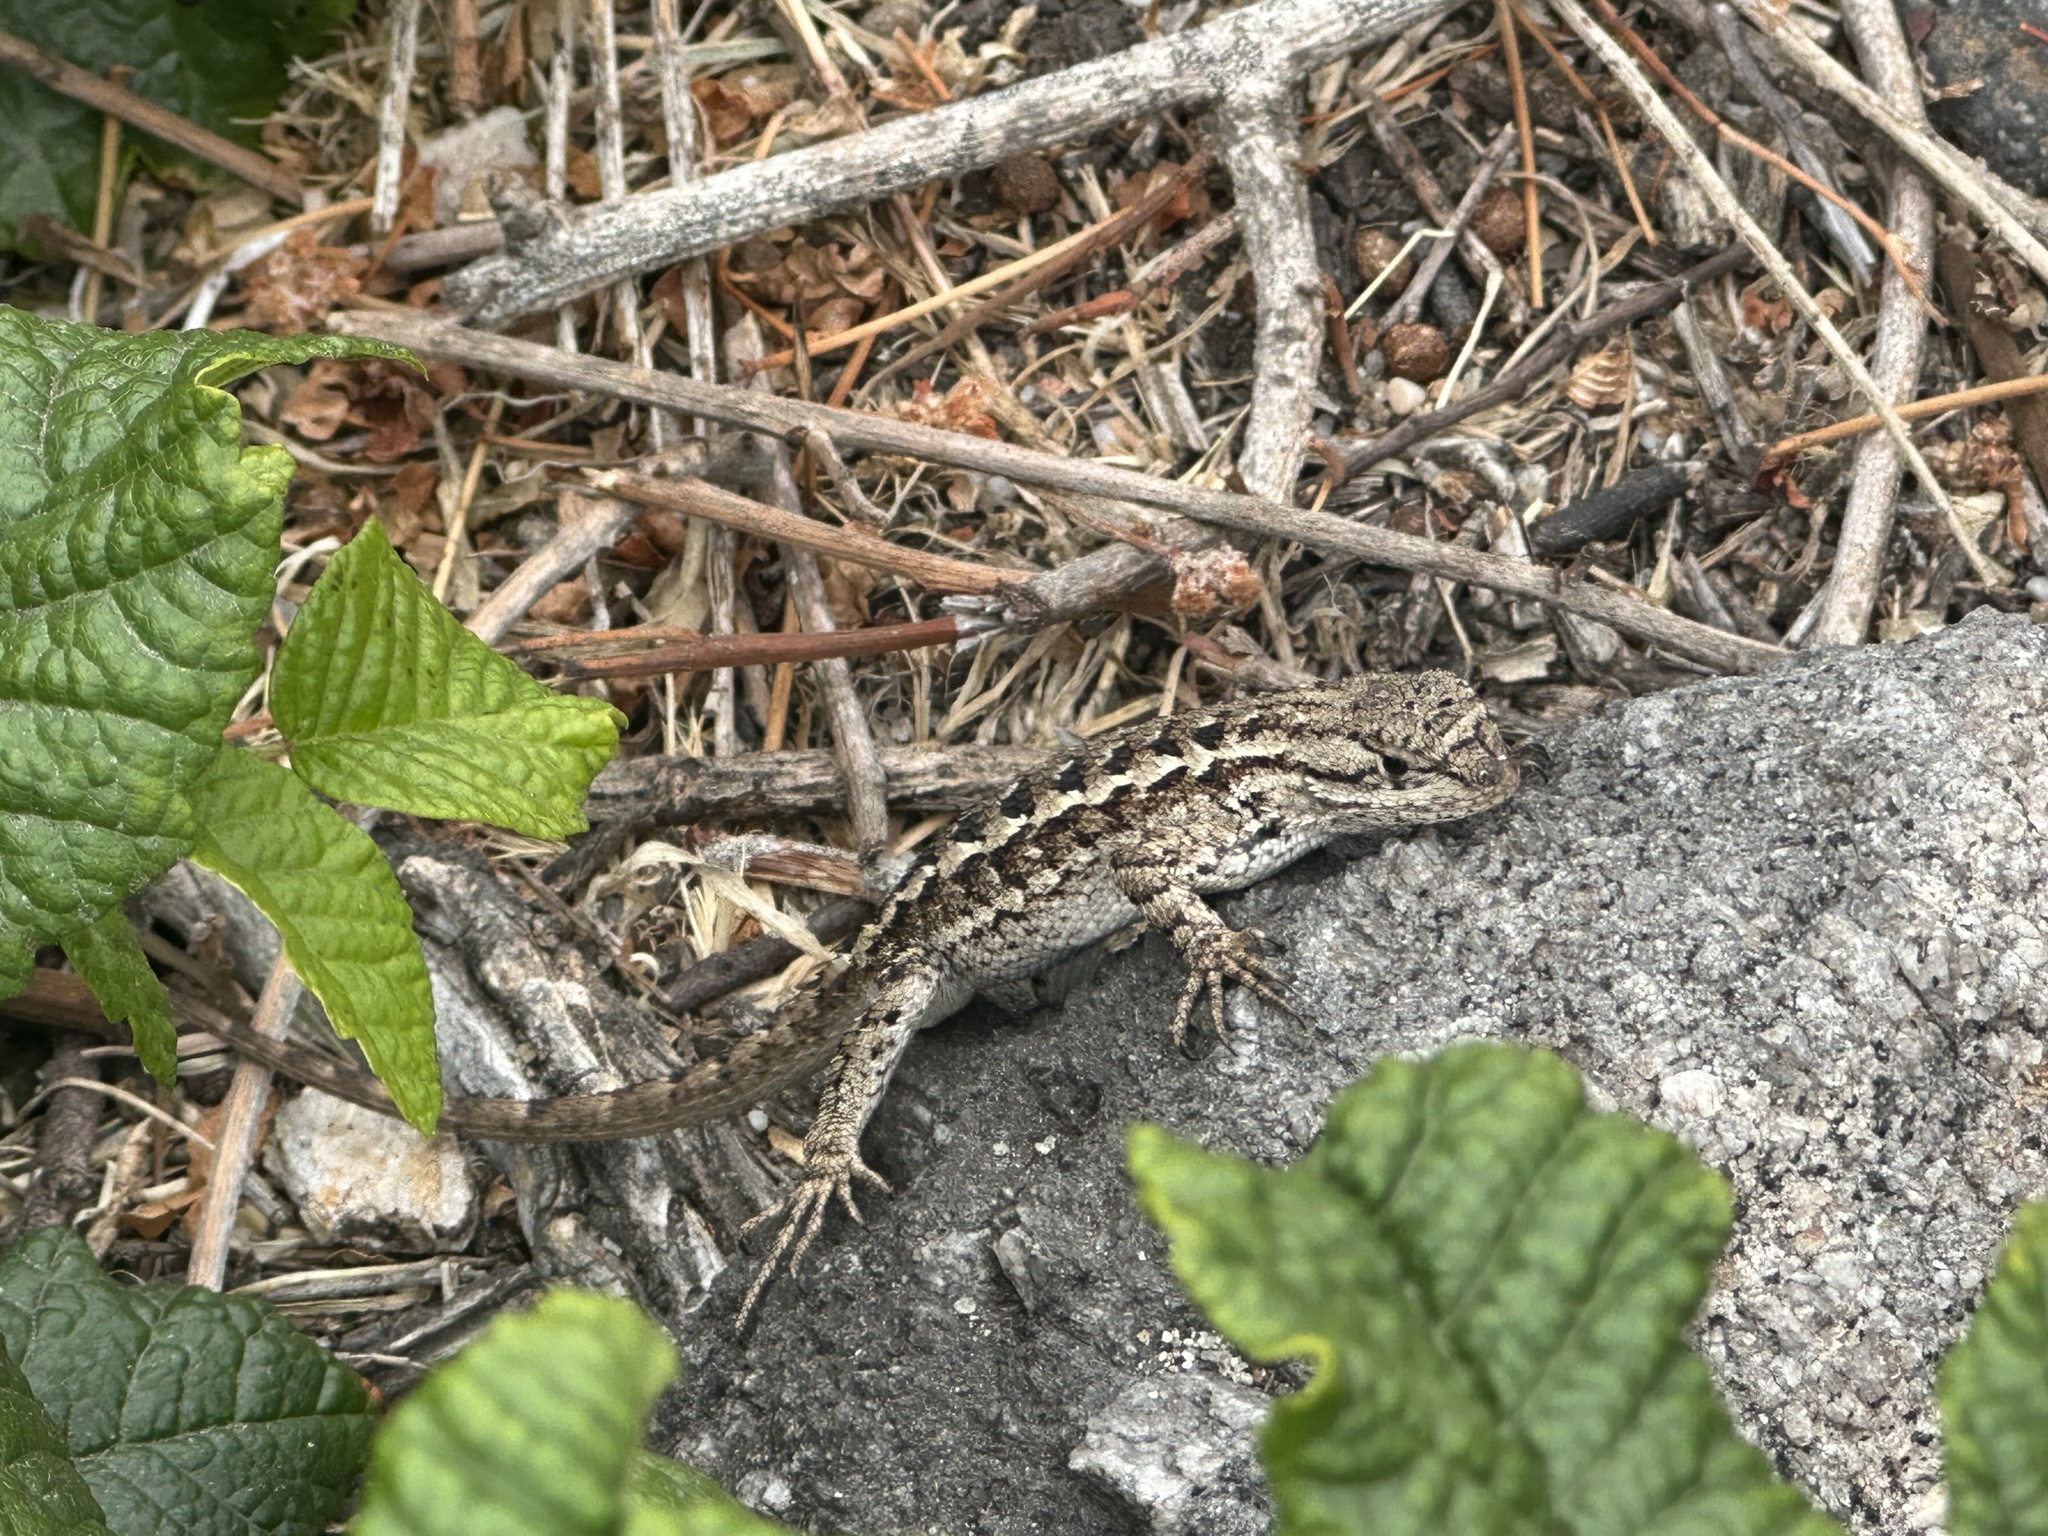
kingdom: Animalia
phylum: Chordata
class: Squamata
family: Phrynosomatidae
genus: Sceloporus
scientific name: Sceloporus occidentalis
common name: Western fence lizard
